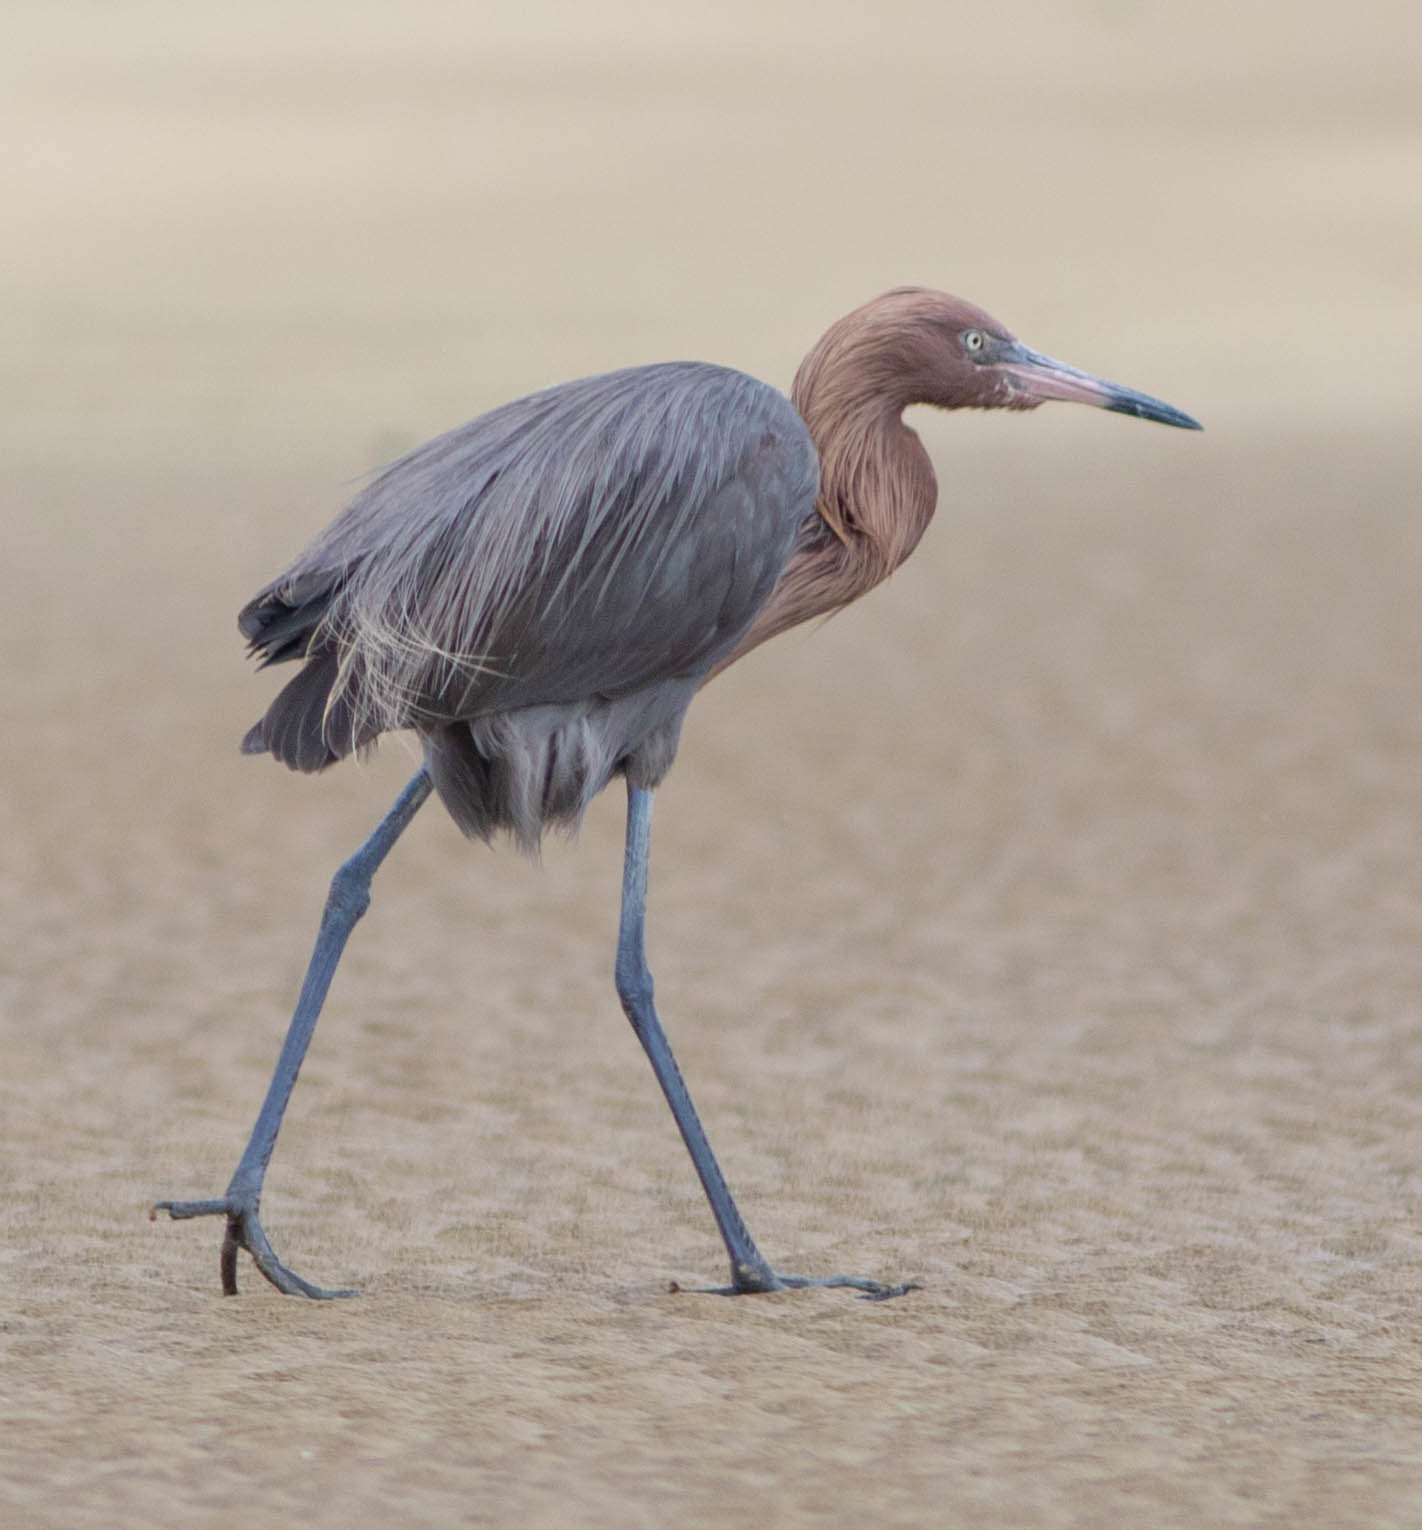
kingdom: Animalia
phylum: Chordata
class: Aves
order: Pelecaniformes
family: Ardeidae
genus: Egretta
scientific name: Egretta rufescens
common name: Reddish egret
